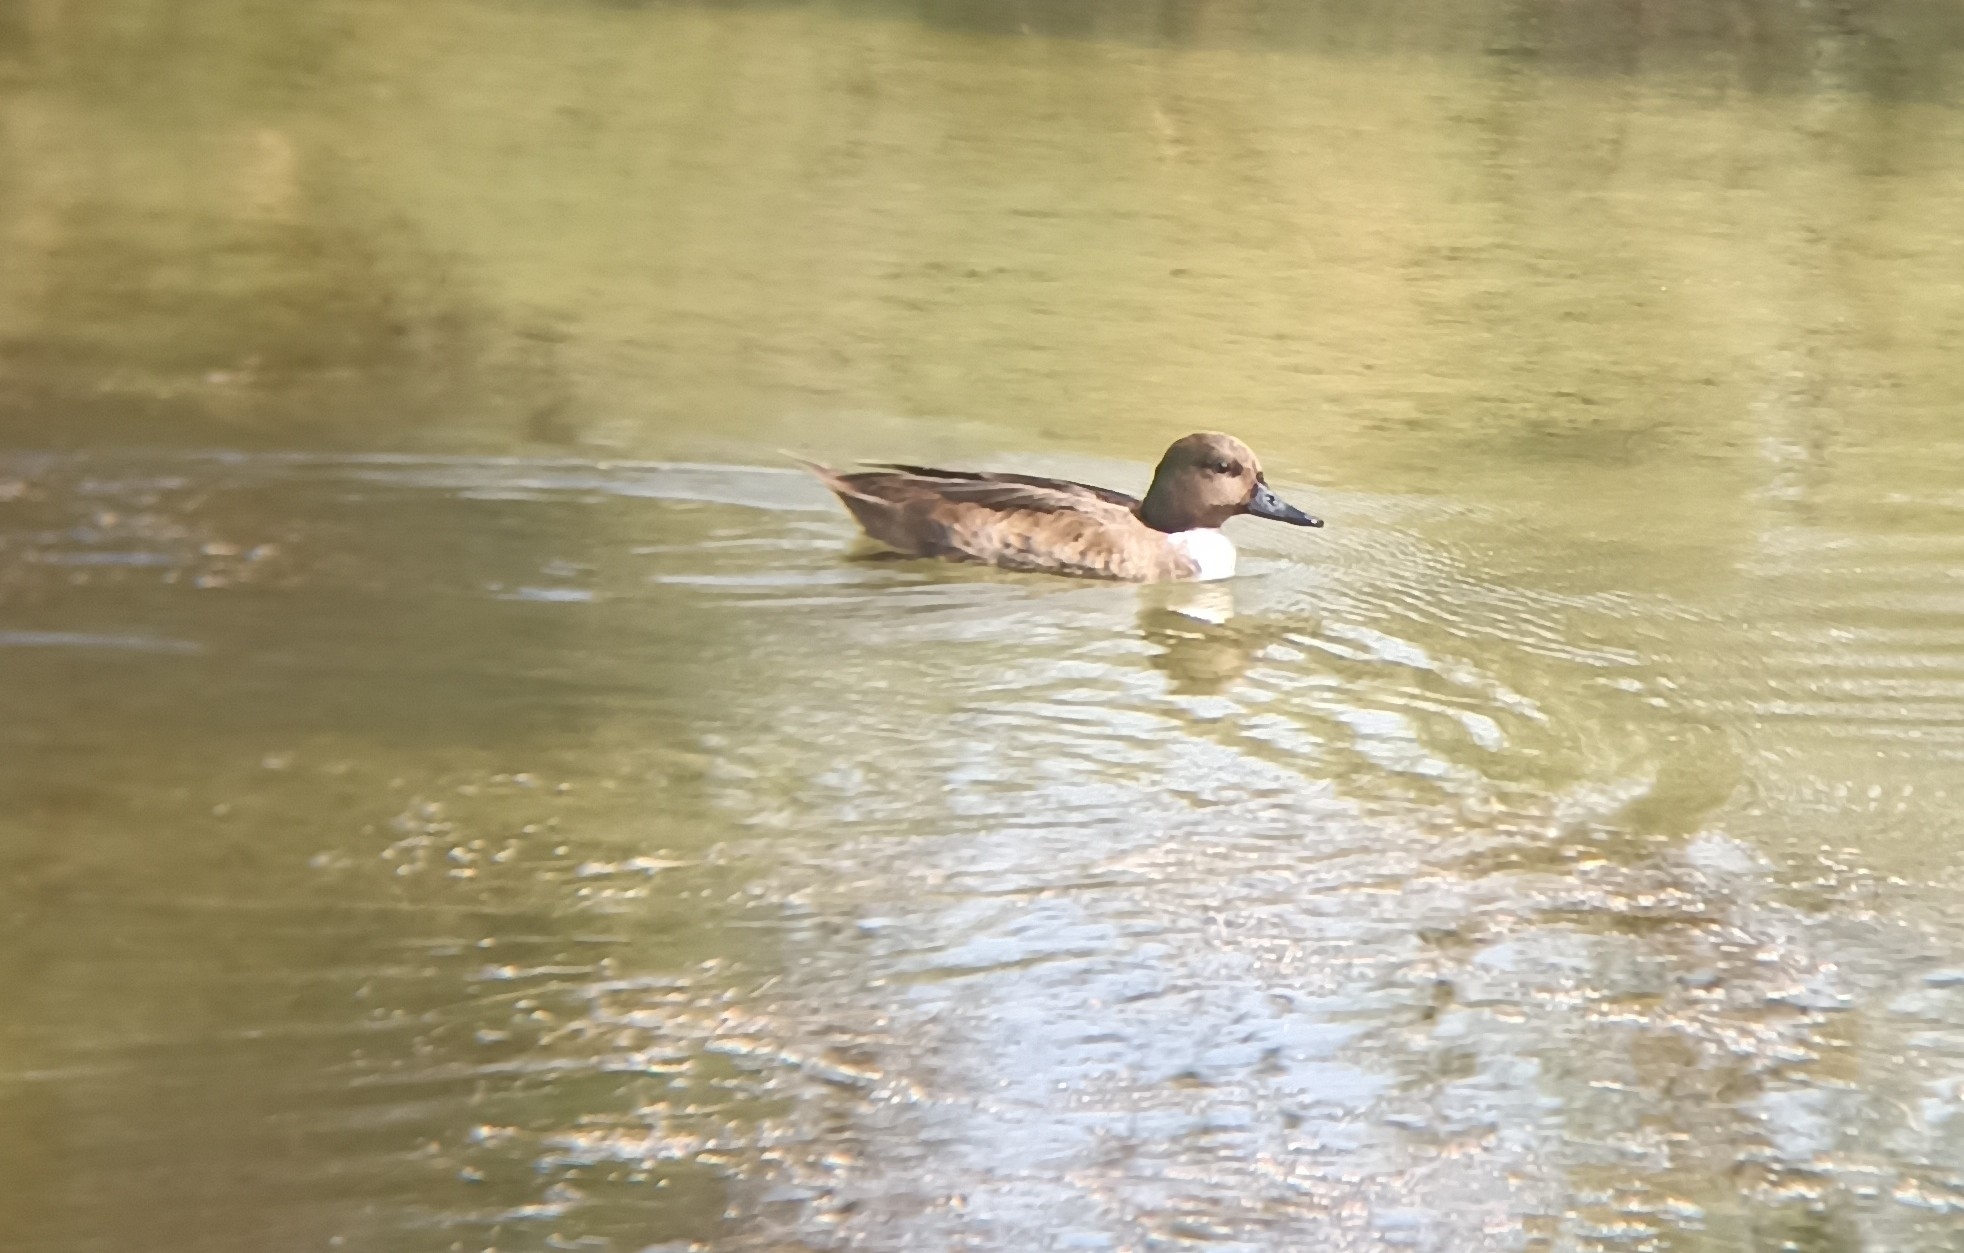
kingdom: Animalia
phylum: Chordata
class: Aves
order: Anseriformes
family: Anatidae
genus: Anas
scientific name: Anas
